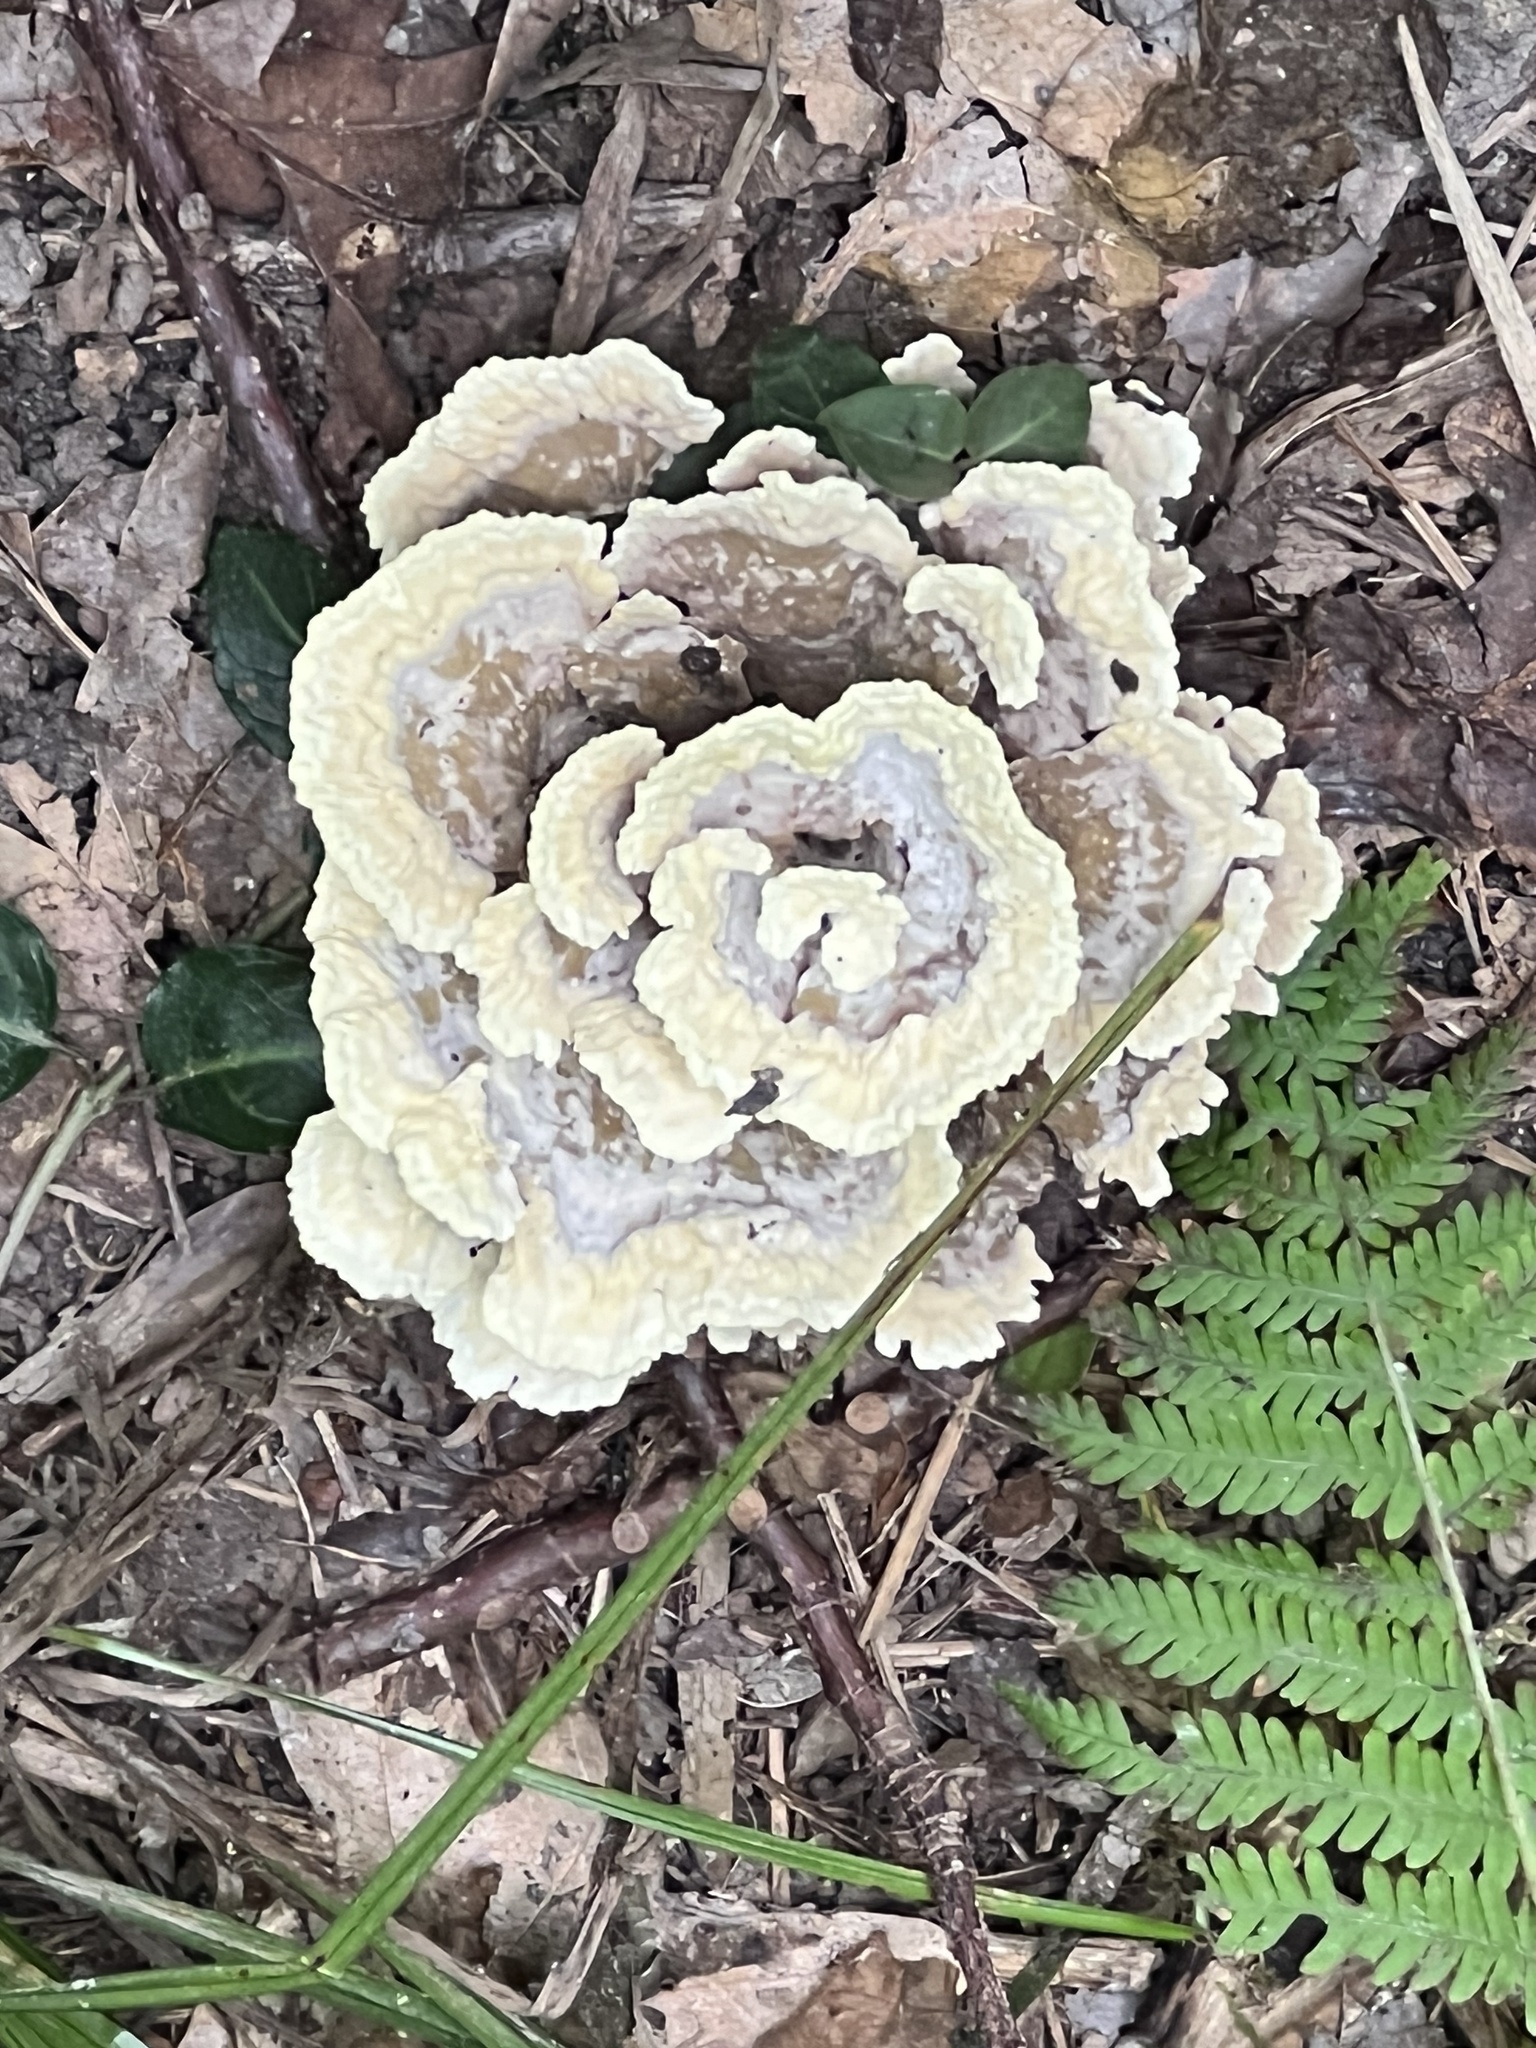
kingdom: Fungi
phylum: Basidiomycota
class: Agaricomycetes
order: Thelephorales
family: Thelephoraceae
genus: Thelephora
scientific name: Thelephora vialis
